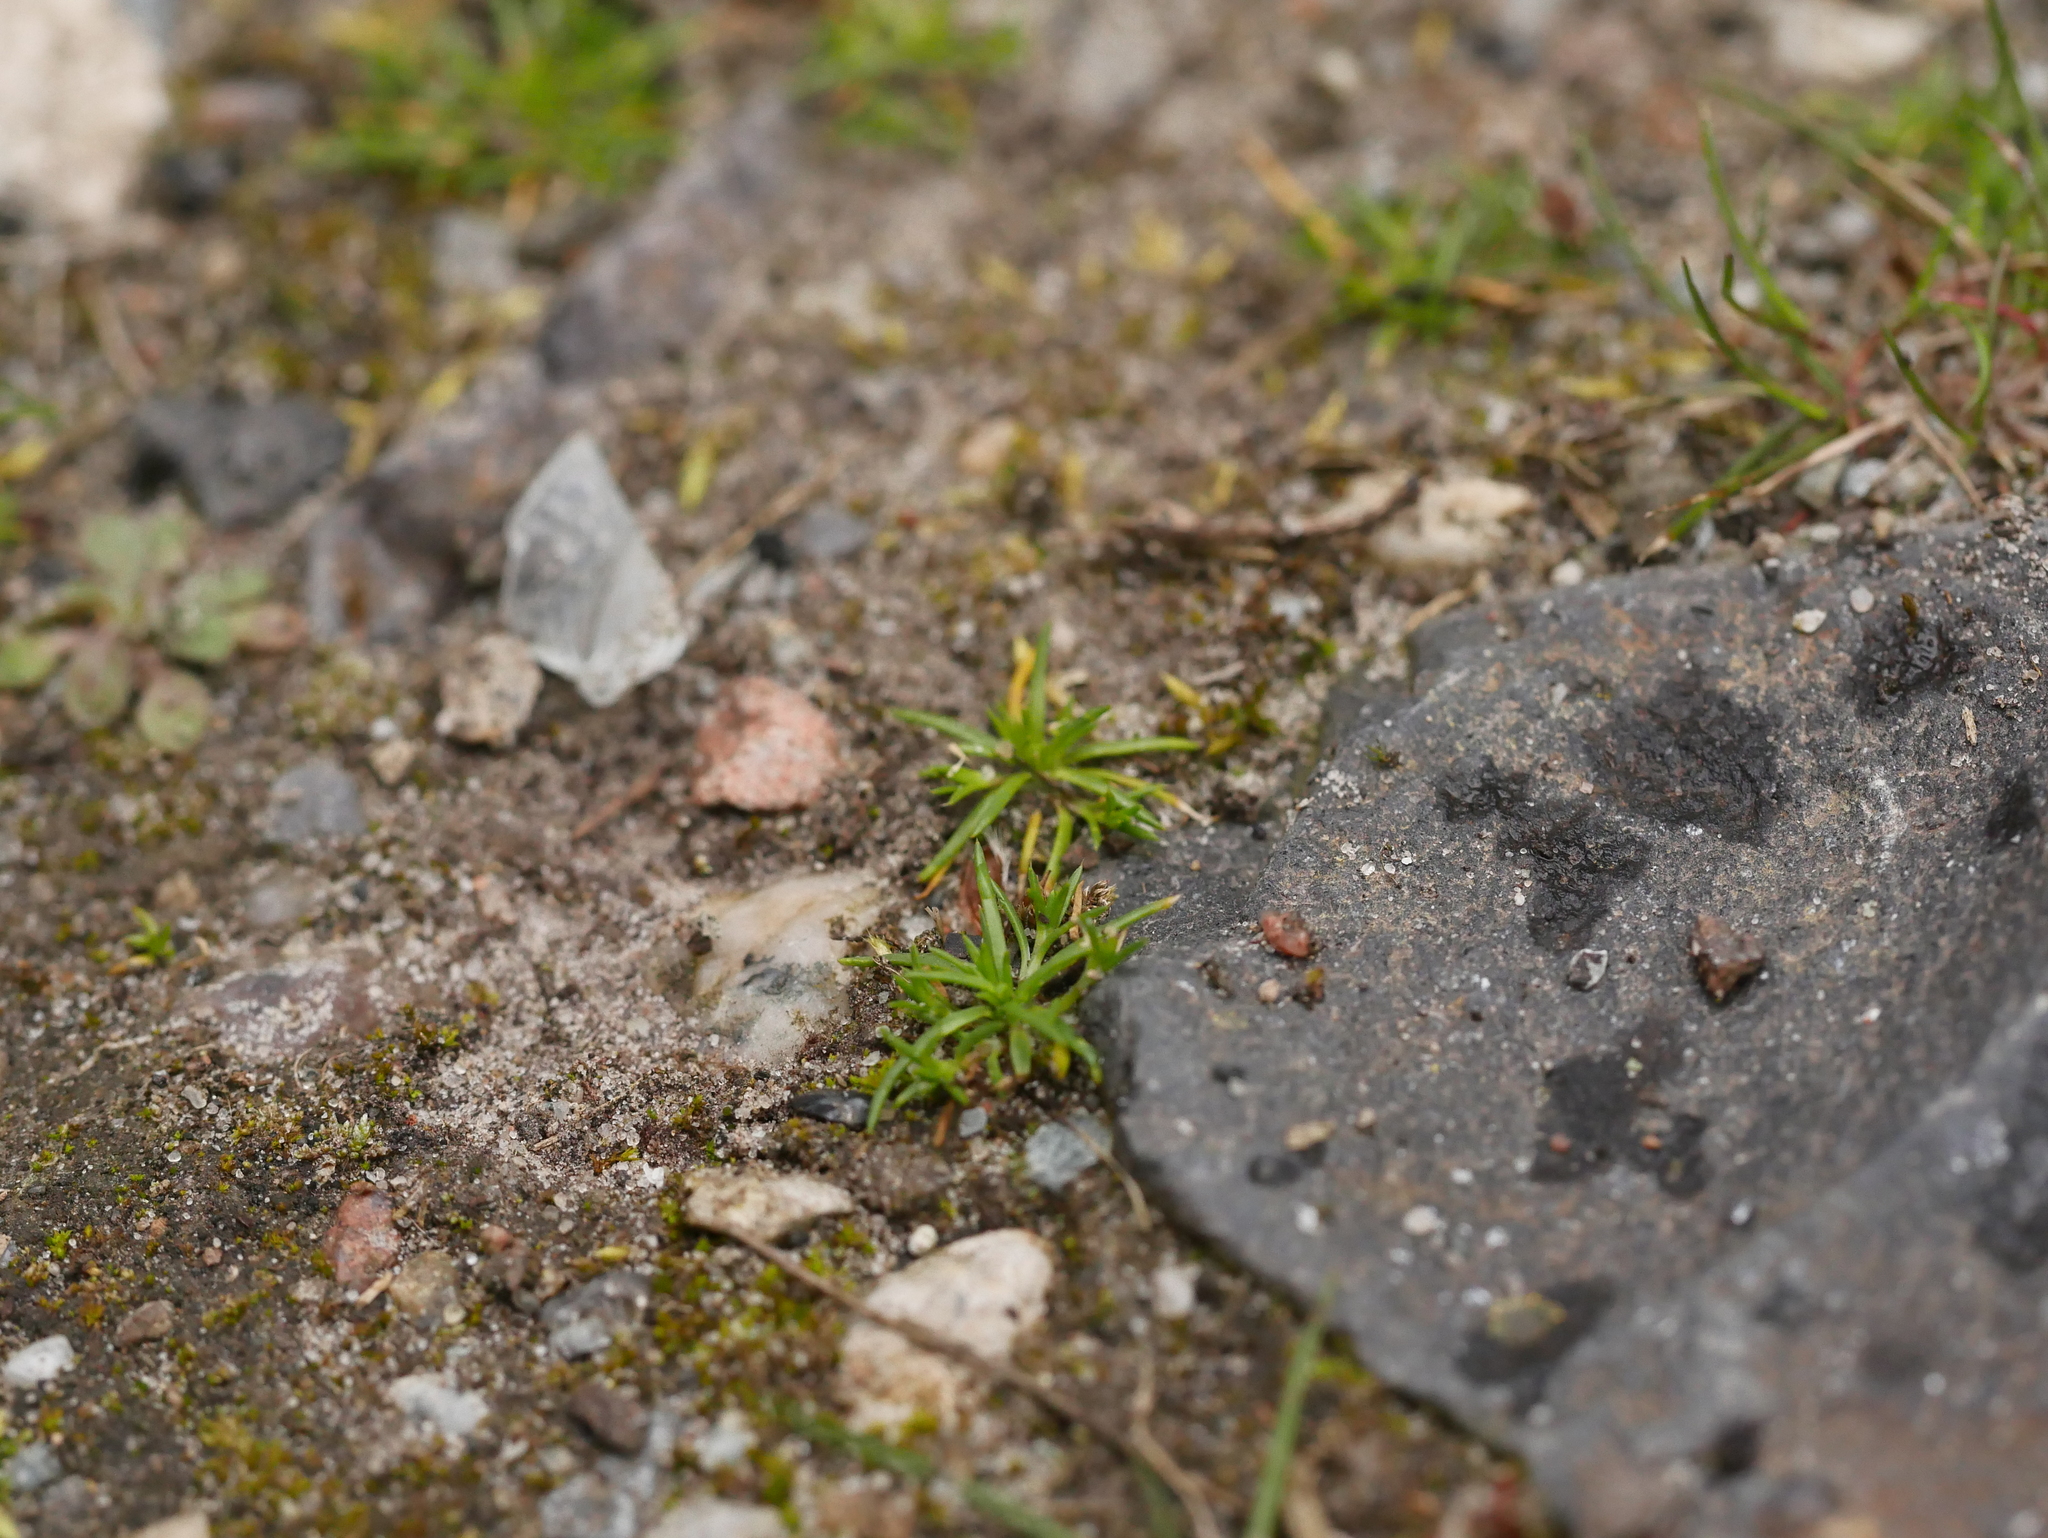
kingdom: Plantae
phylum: Tracheophyta
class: Magnoliopsida
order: Caryophyllales
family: Caryophyllaceae
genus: Sagina
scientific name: Sagina procumbens
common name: Procumbent pearlwort
